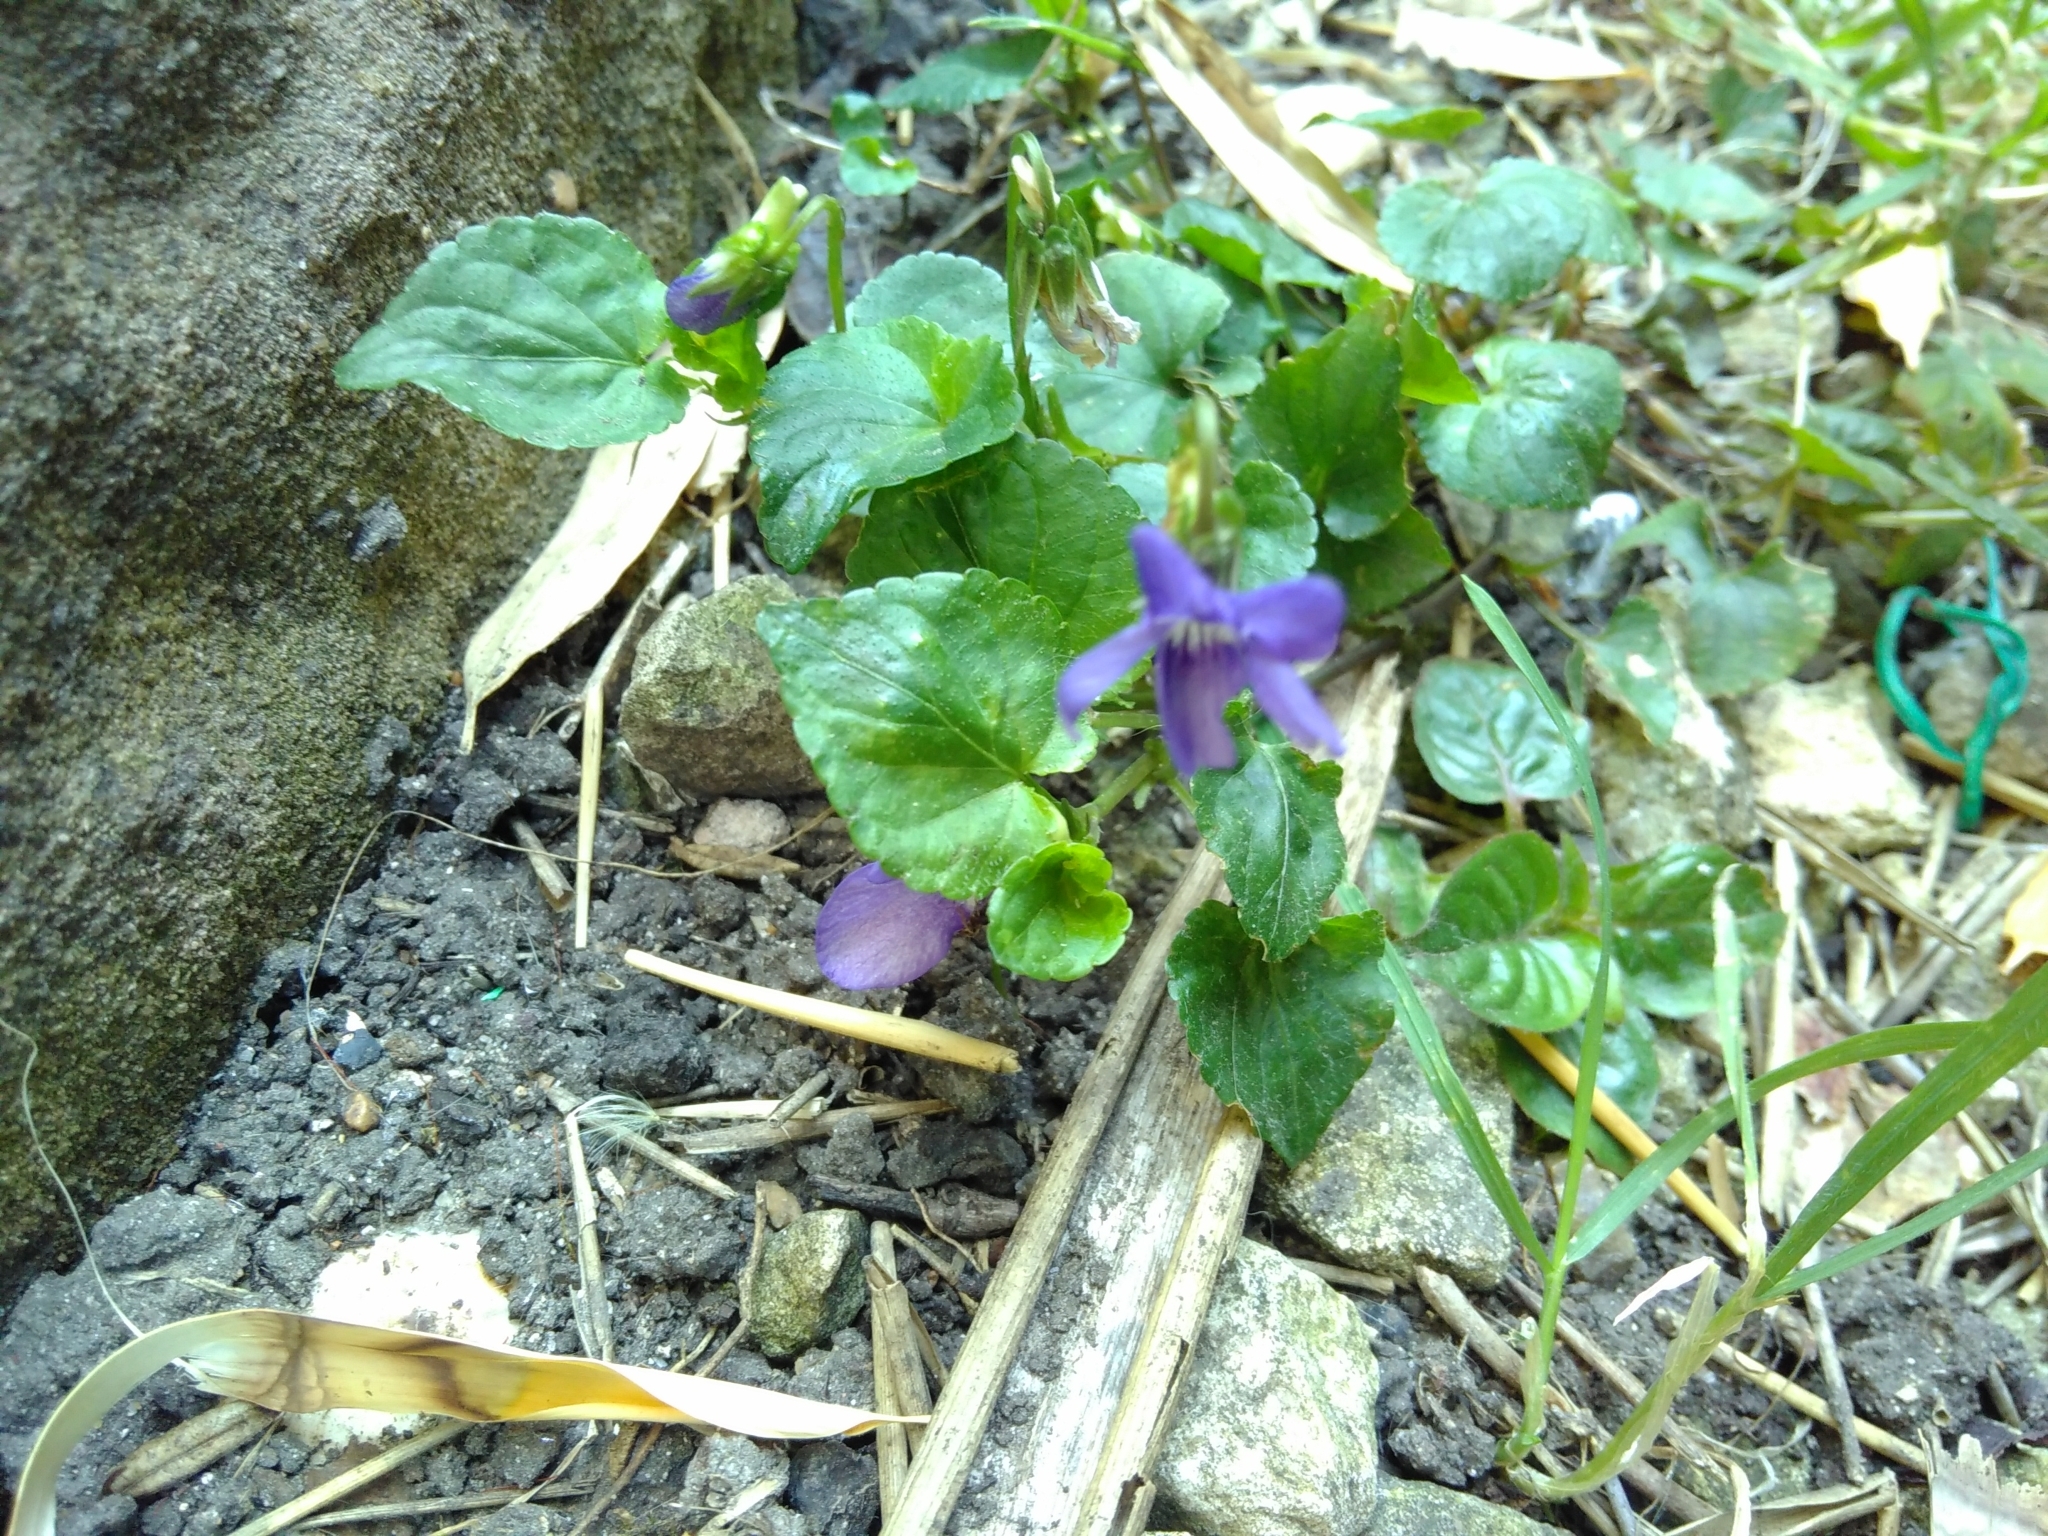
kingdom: Plantae
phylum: Tracheophyta
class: Magnoliopsida
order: Malpighiales
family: Violaceae
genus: Viola
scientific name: Viola riviniana
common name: Common dog-violet
